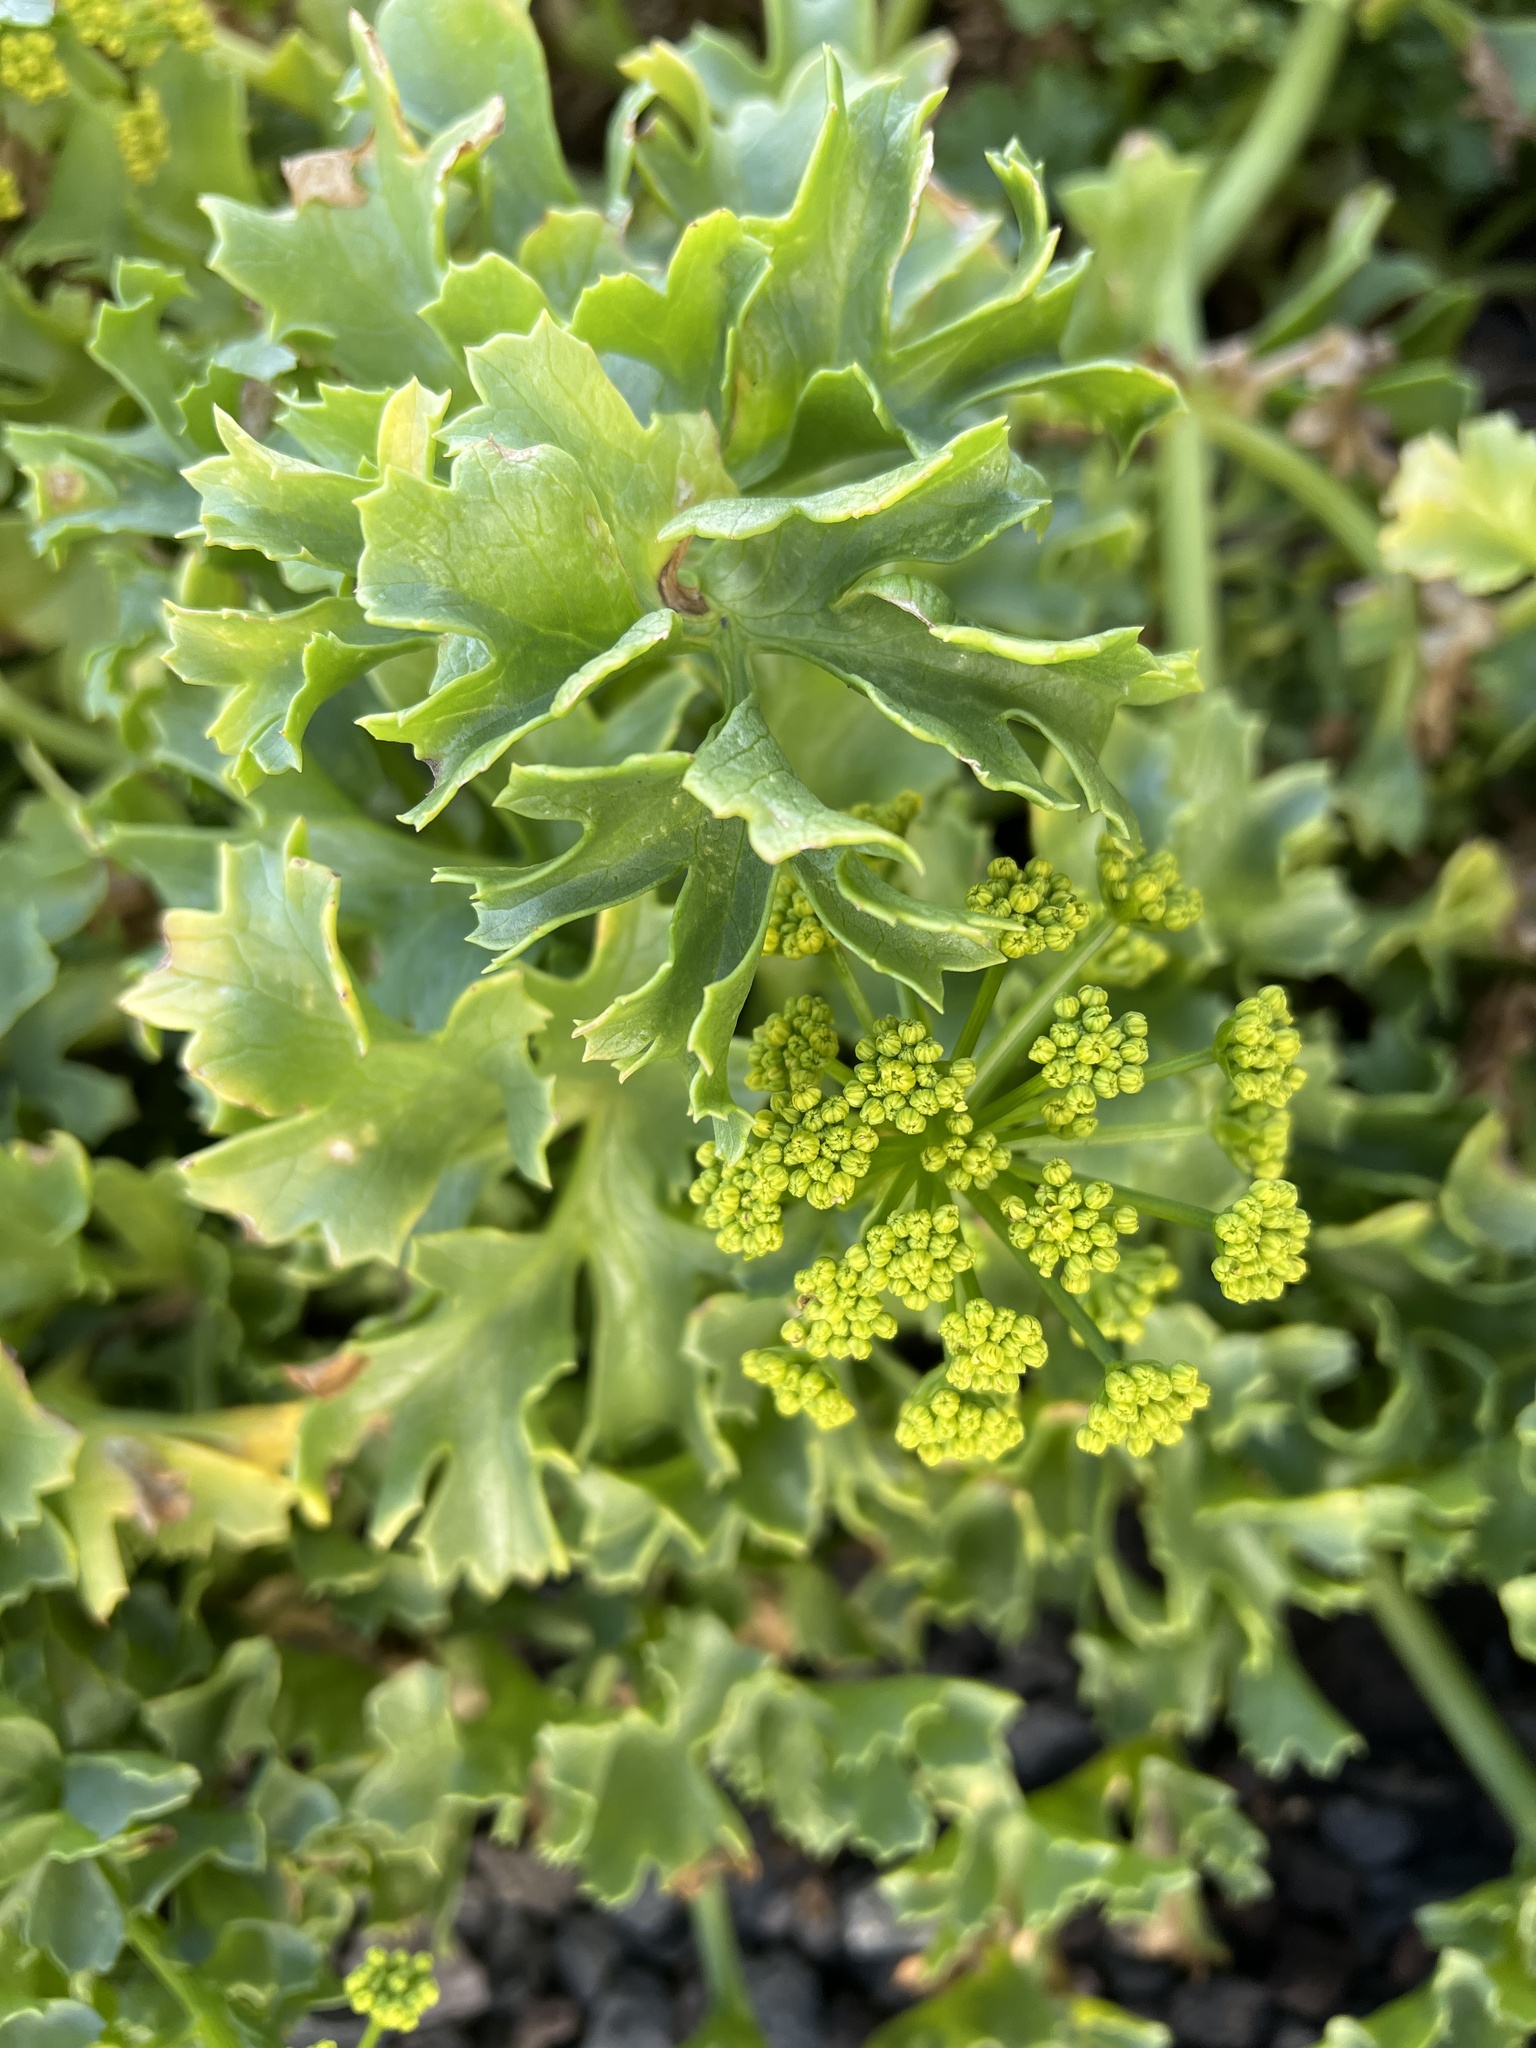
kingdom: Plantae
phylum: Tracheophyta
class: Magnoliopsida
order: Apiales
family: Apiaceae
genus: Astydamia
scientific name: Astydamia latifolia
